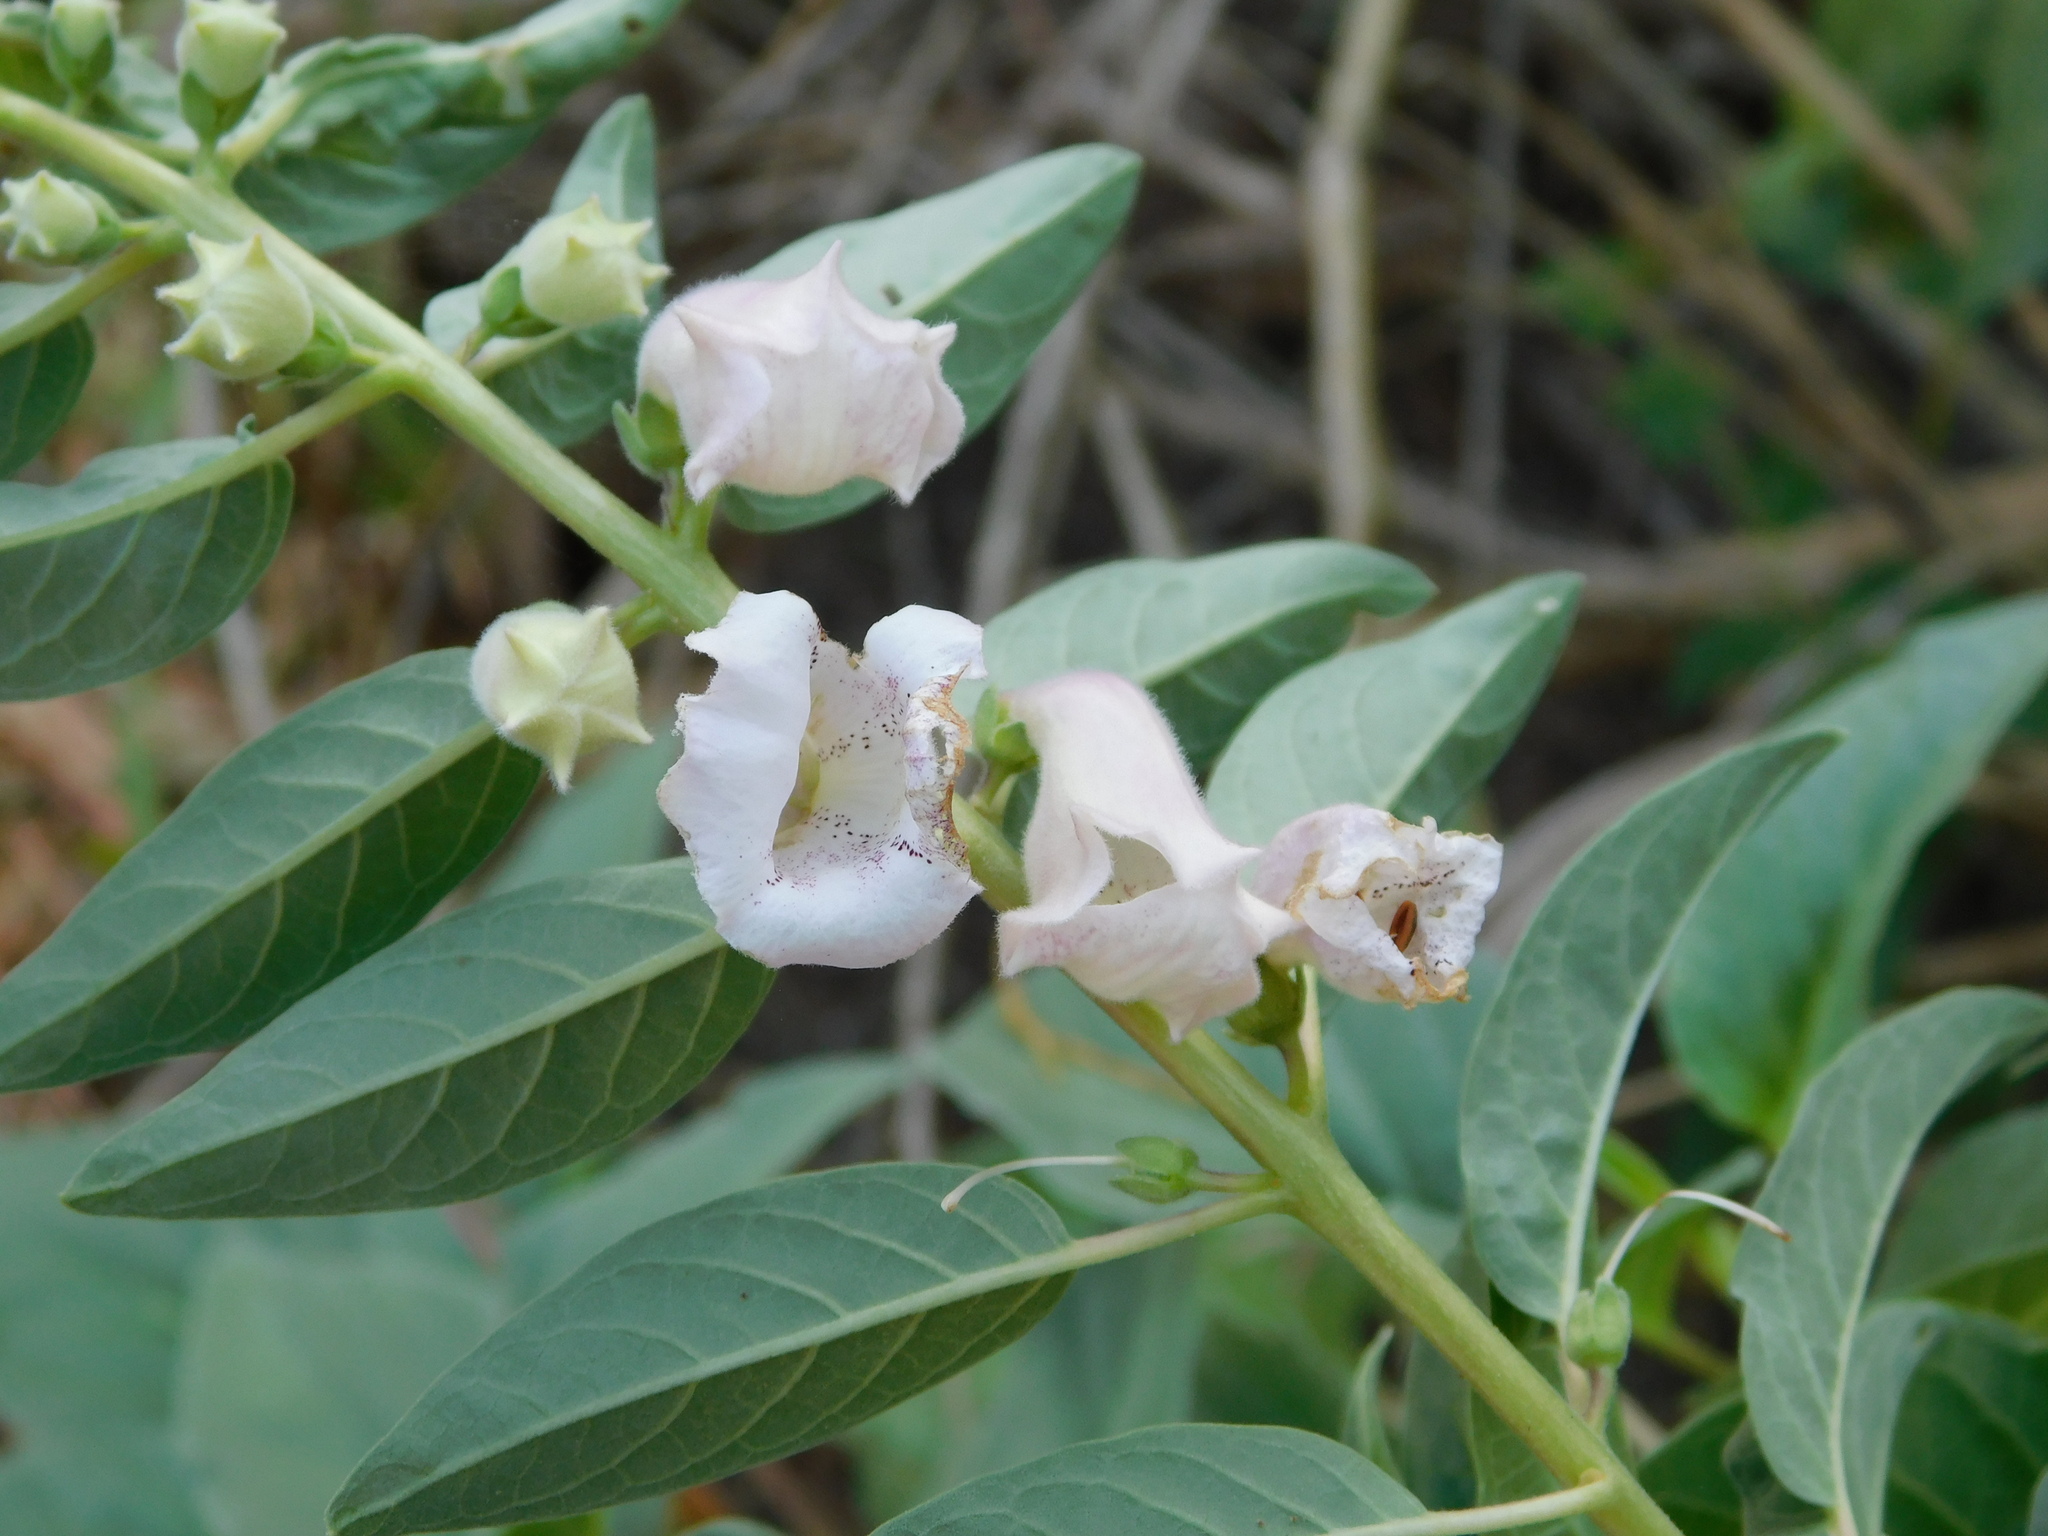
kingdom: Plantae
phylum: Tracheophyta
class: Magnoliopsida
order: Lamiales
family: Pedaliaceae
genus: Josephinia
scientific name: Josephinia celebica
